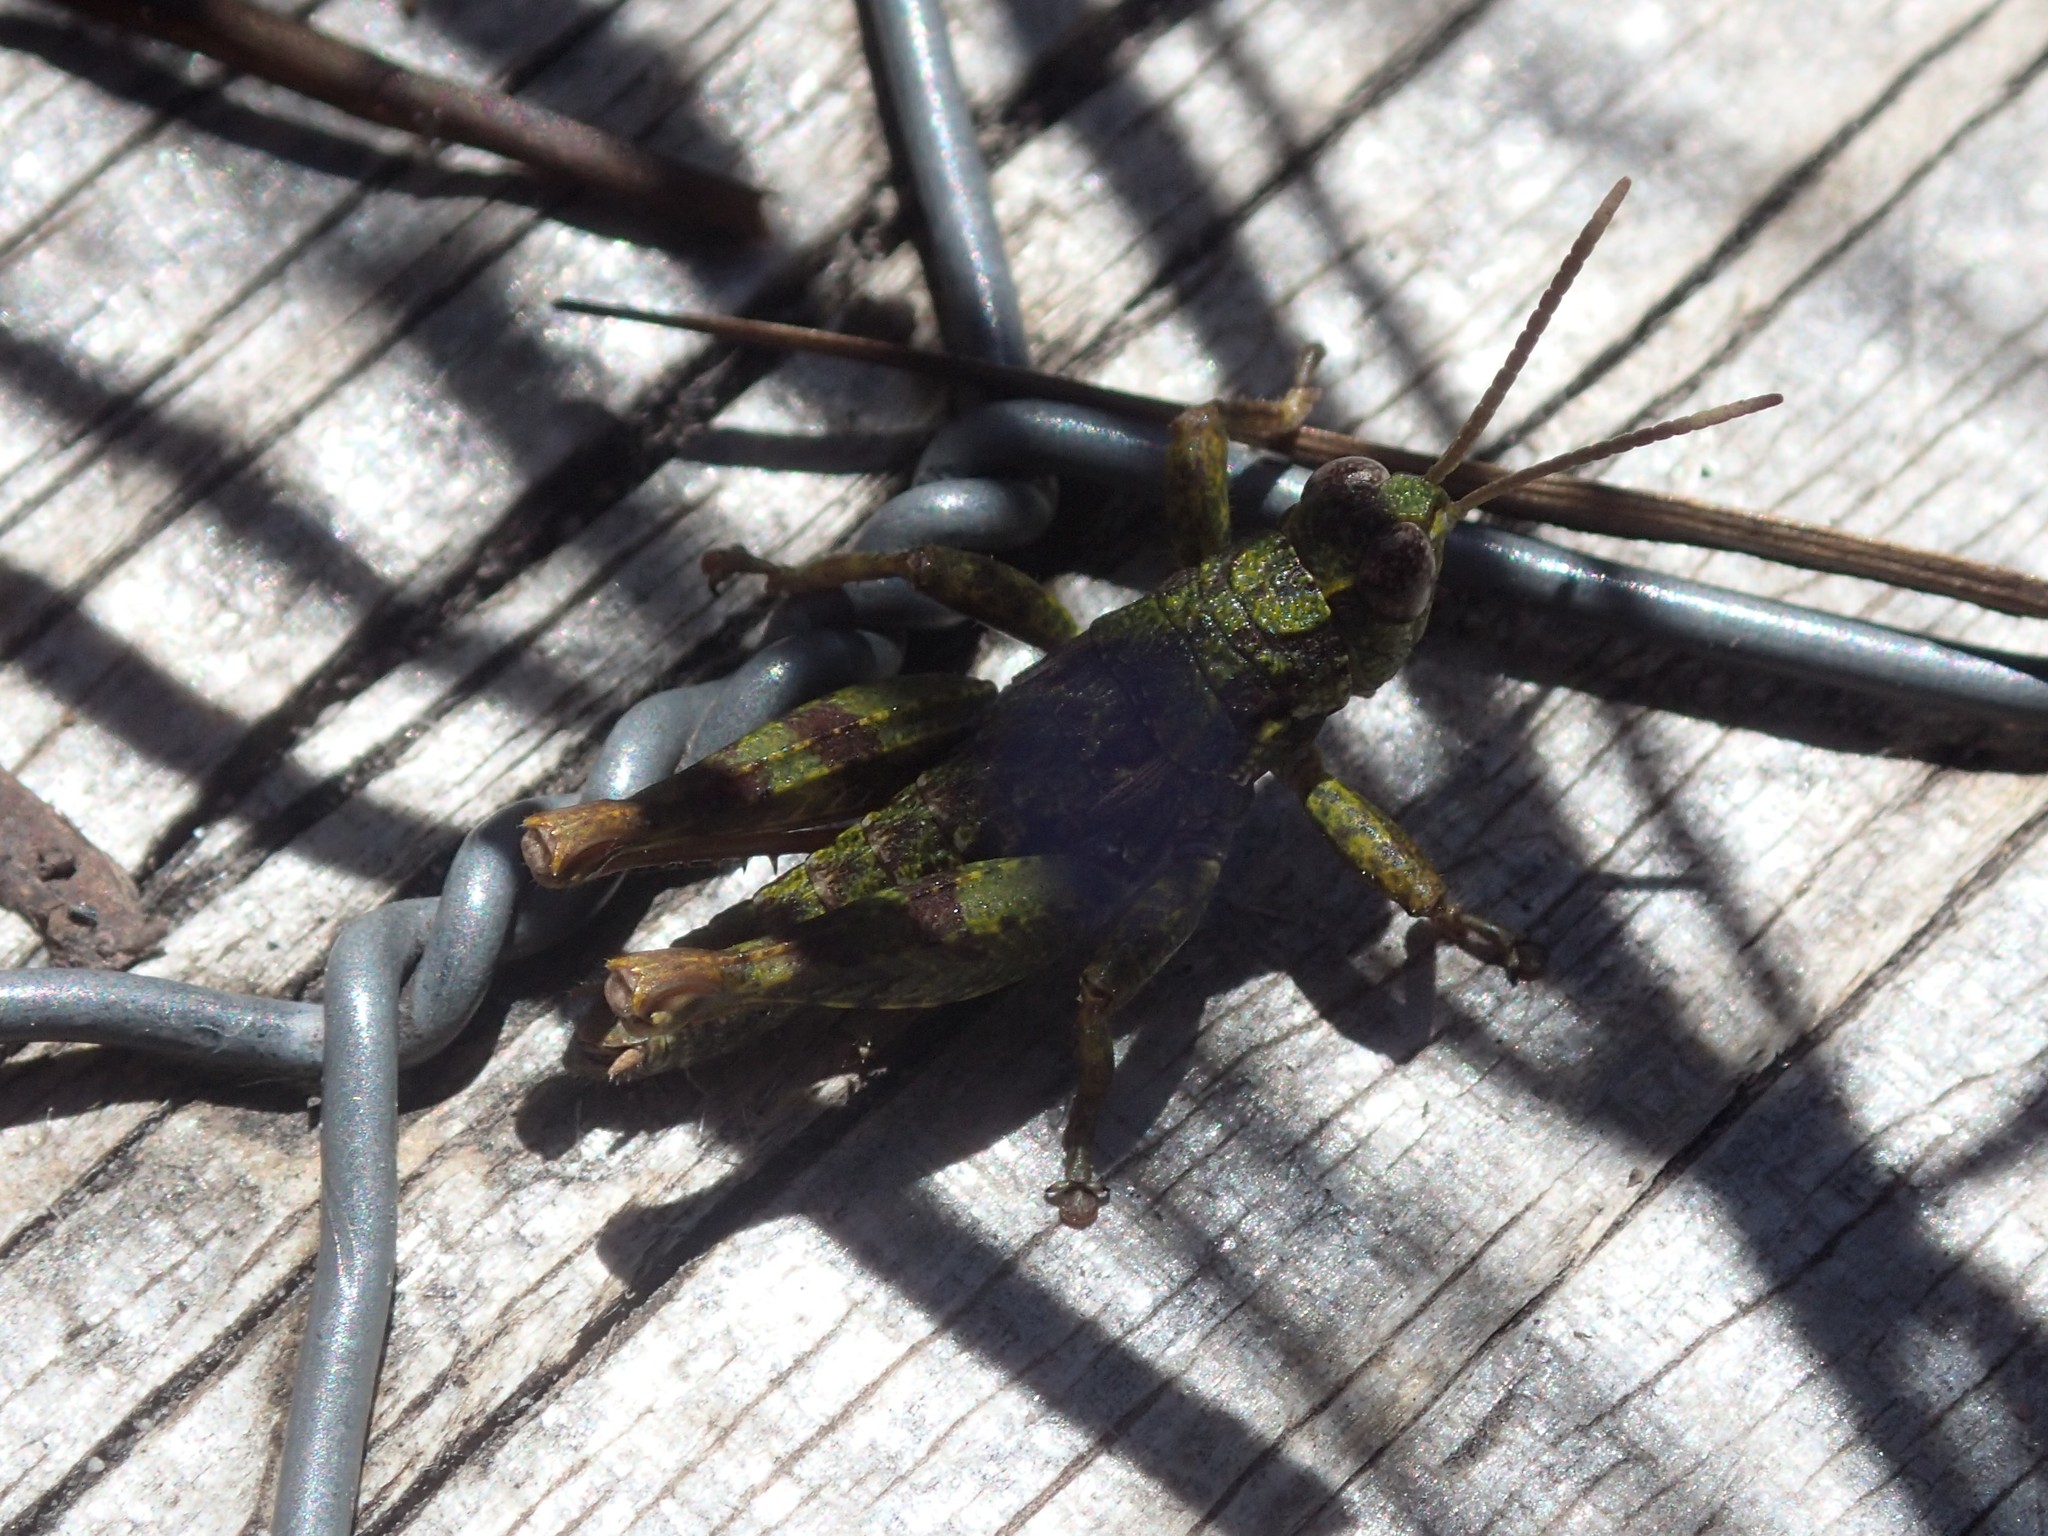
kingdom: Animalia
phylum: Arthropoda
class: Insecta
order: Orthoptera
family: Acrididae
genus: Tasmaniacris
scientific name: Tasmaniacris tasmaniensis
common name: Tasmanian grasshopper
